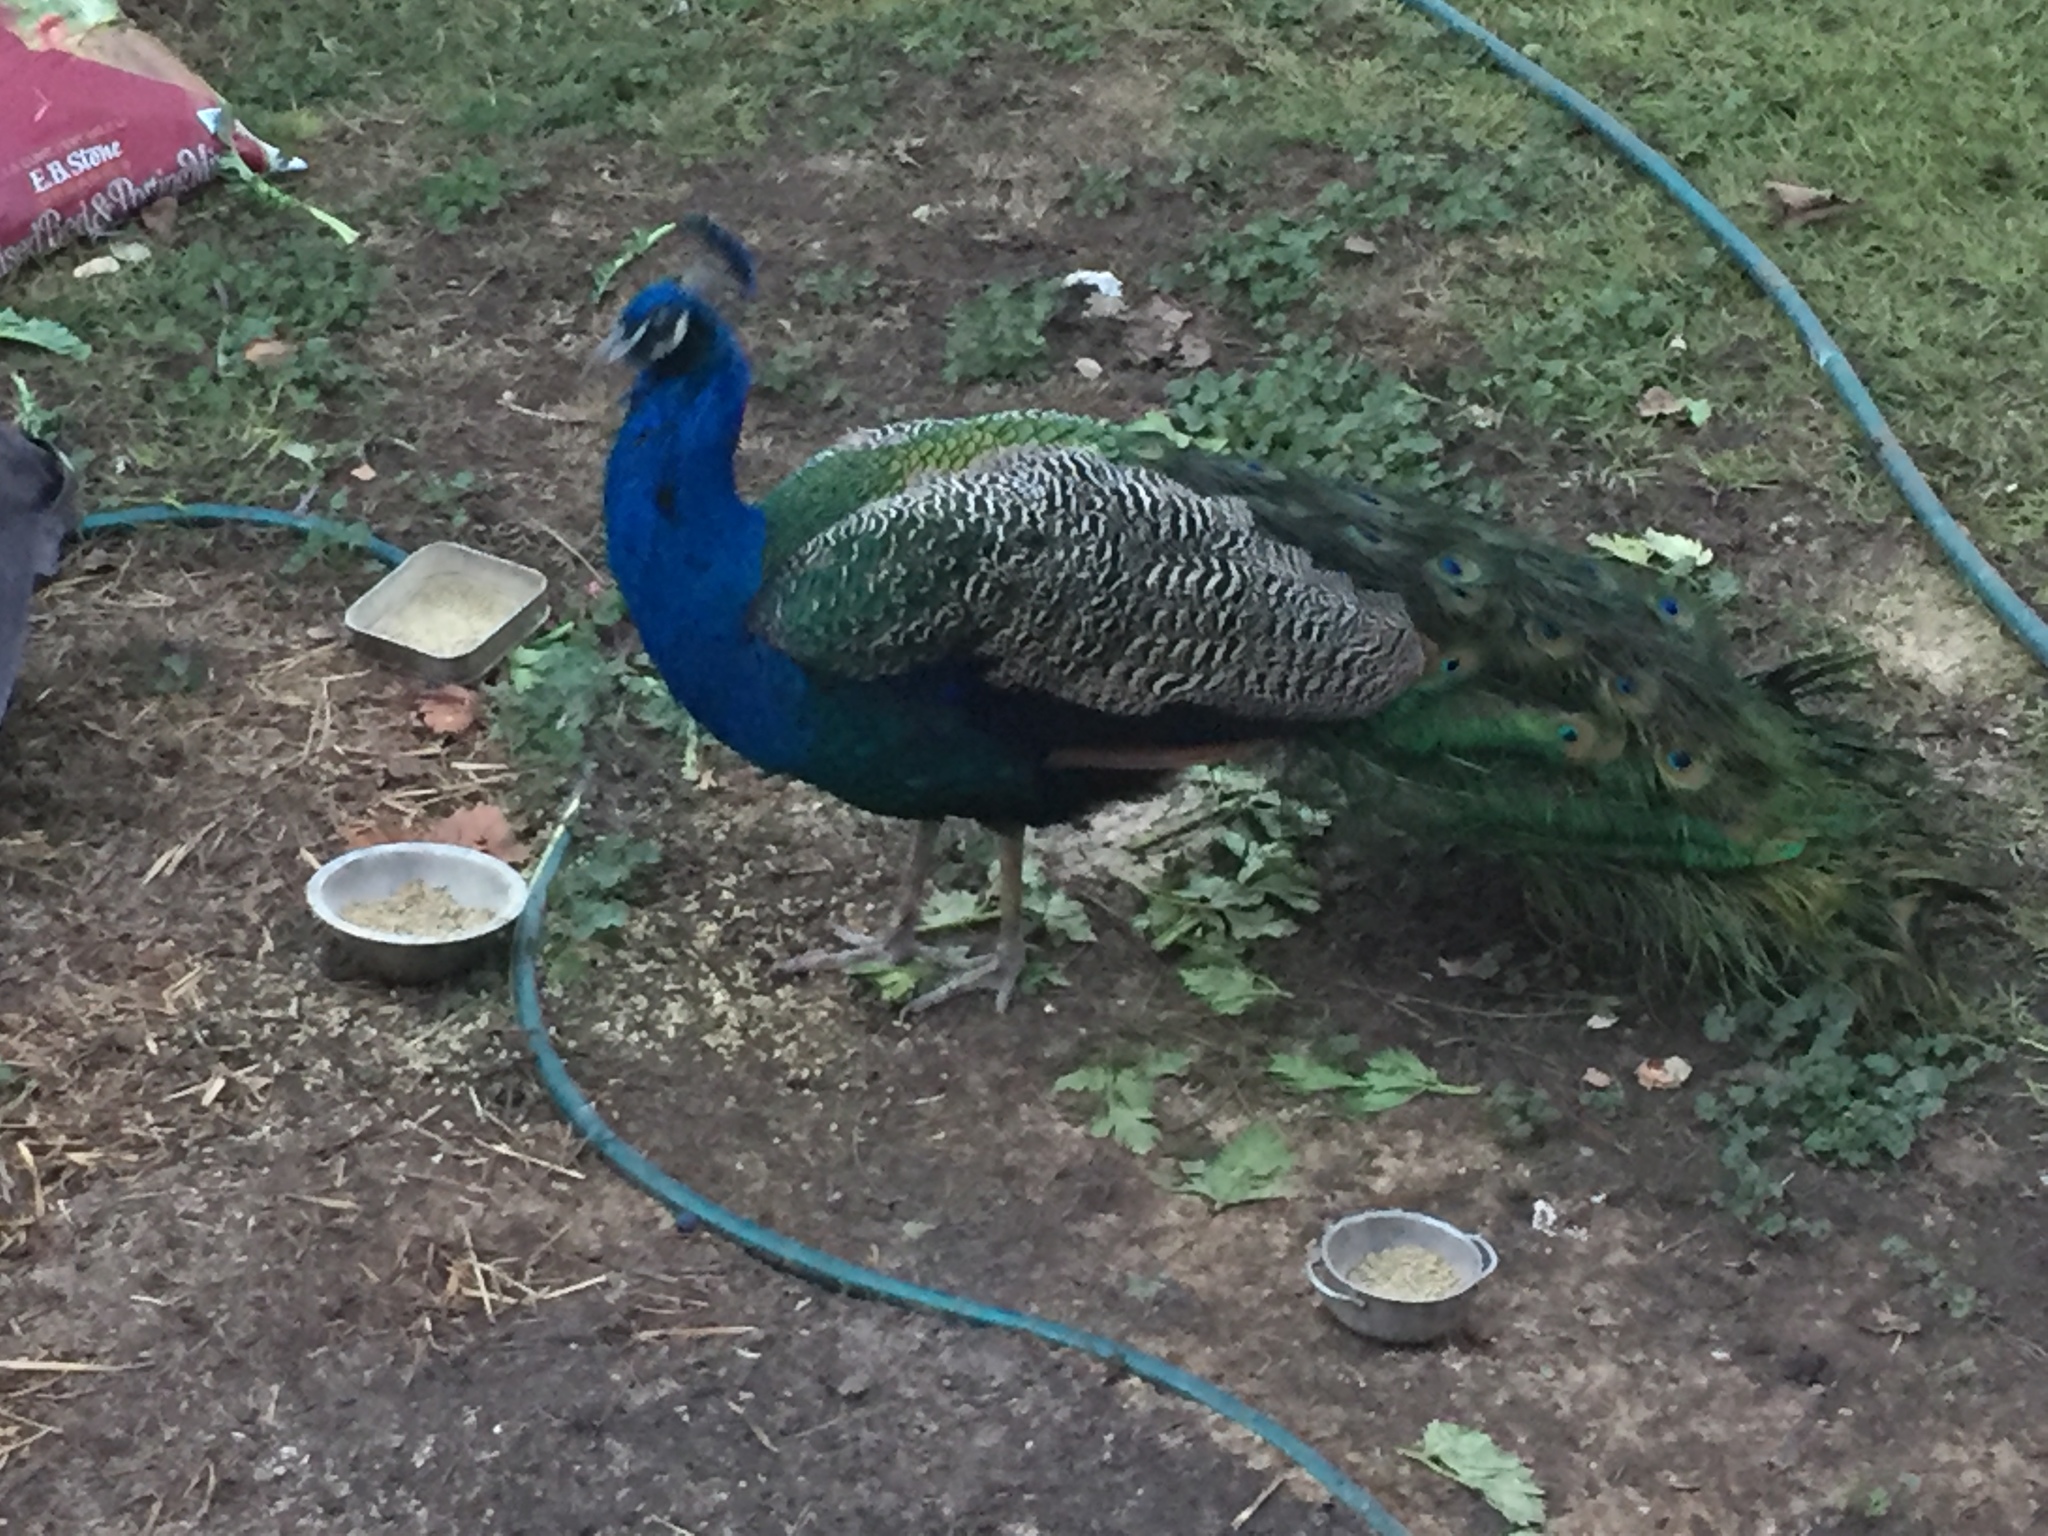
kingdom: Animalia
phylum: Chordata
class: Aves
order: Galliformes
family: Phasianidae
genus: Pavo
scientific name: Pavo cristatus
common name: Indian peafowl
